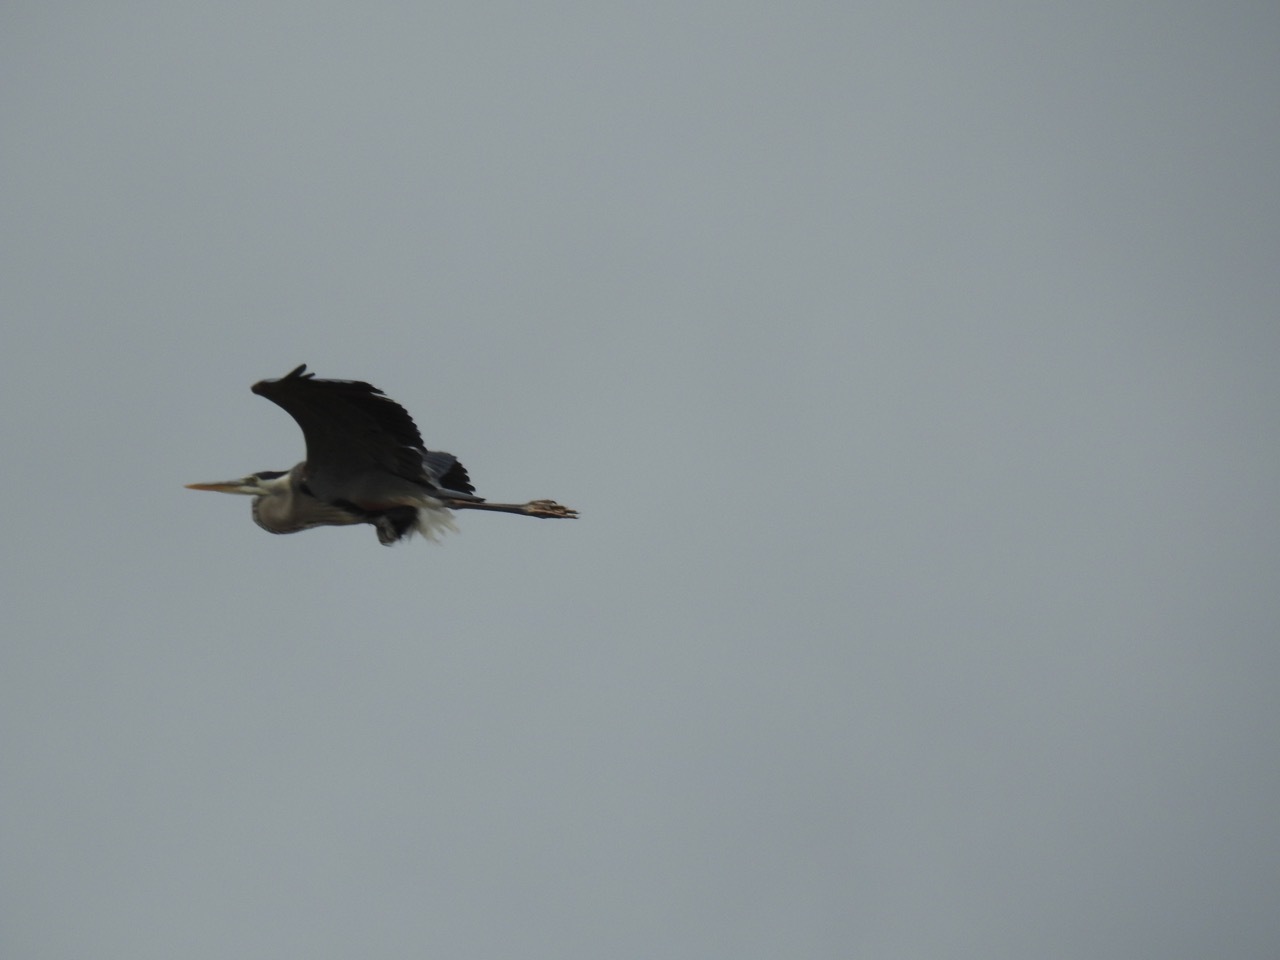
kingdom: Animalia
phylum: Chordata
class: Aves
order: Pelecaniformes
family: Ardeidae
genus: Ardea
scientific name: Ardea herodias
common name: Great blue heron
